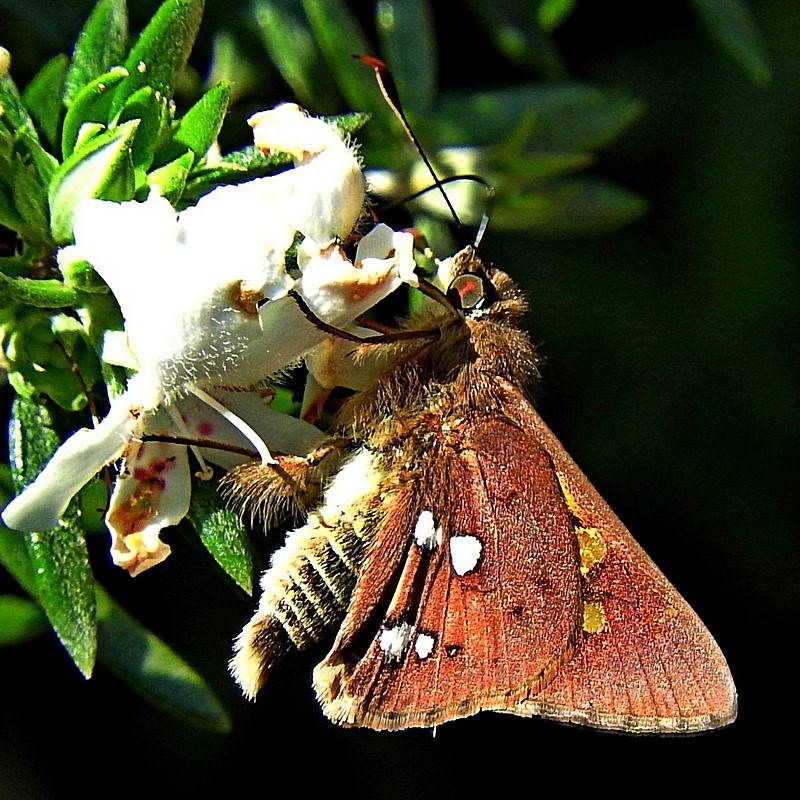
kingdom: Animalia
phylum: Arthropoda
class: Insecta
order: Lepidoptera
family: Hesperiidae
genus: Trapezites
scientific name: Trapezites praxedes
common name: Southern silver ochre
